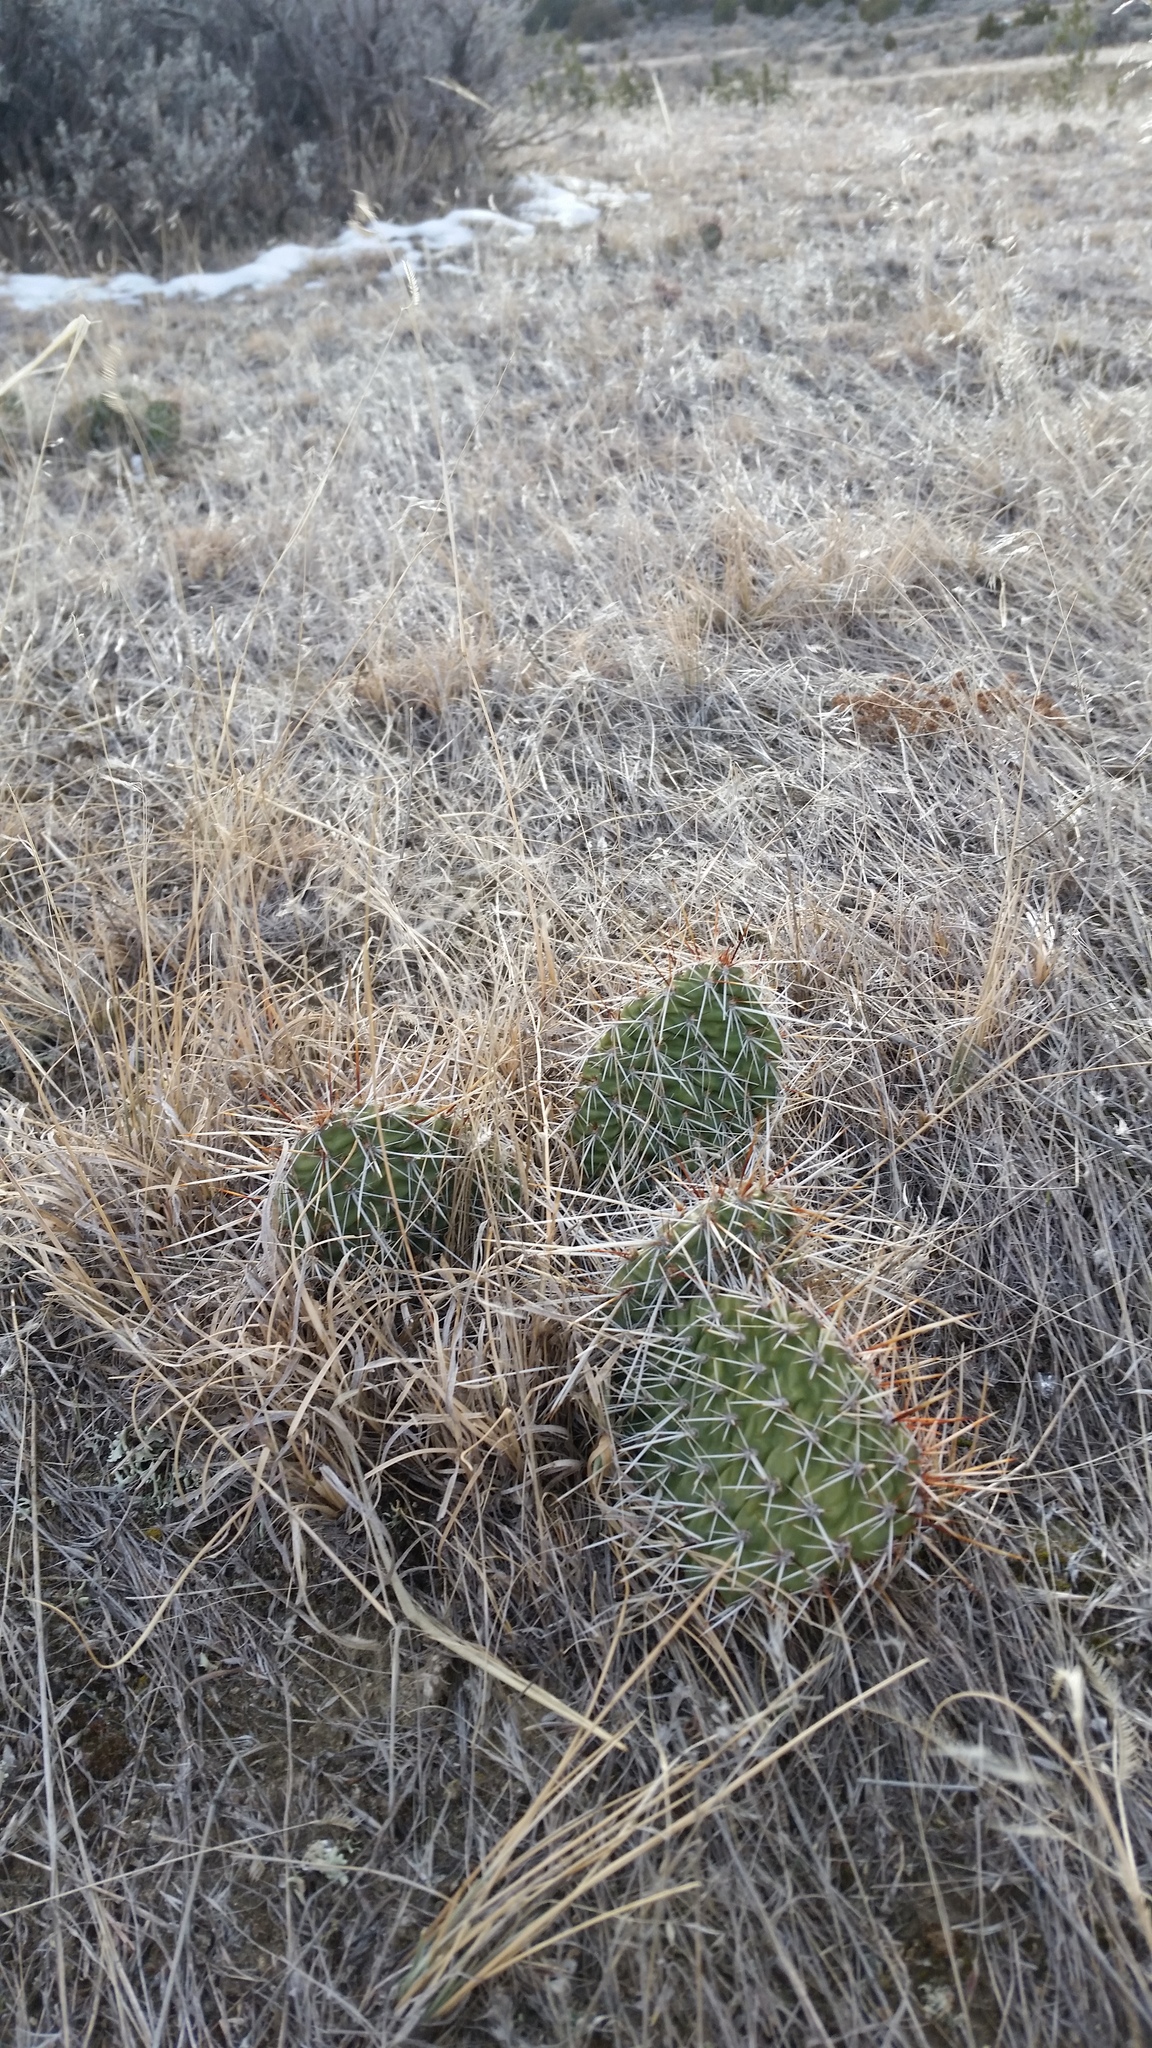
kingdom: Plantae
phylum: Tracheophyta
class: Magnoliopsida
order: Caryophyllales
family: Cactaceae
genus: Opuntia
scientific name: Opuntia polyacantha
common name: Plains prickly-pear
